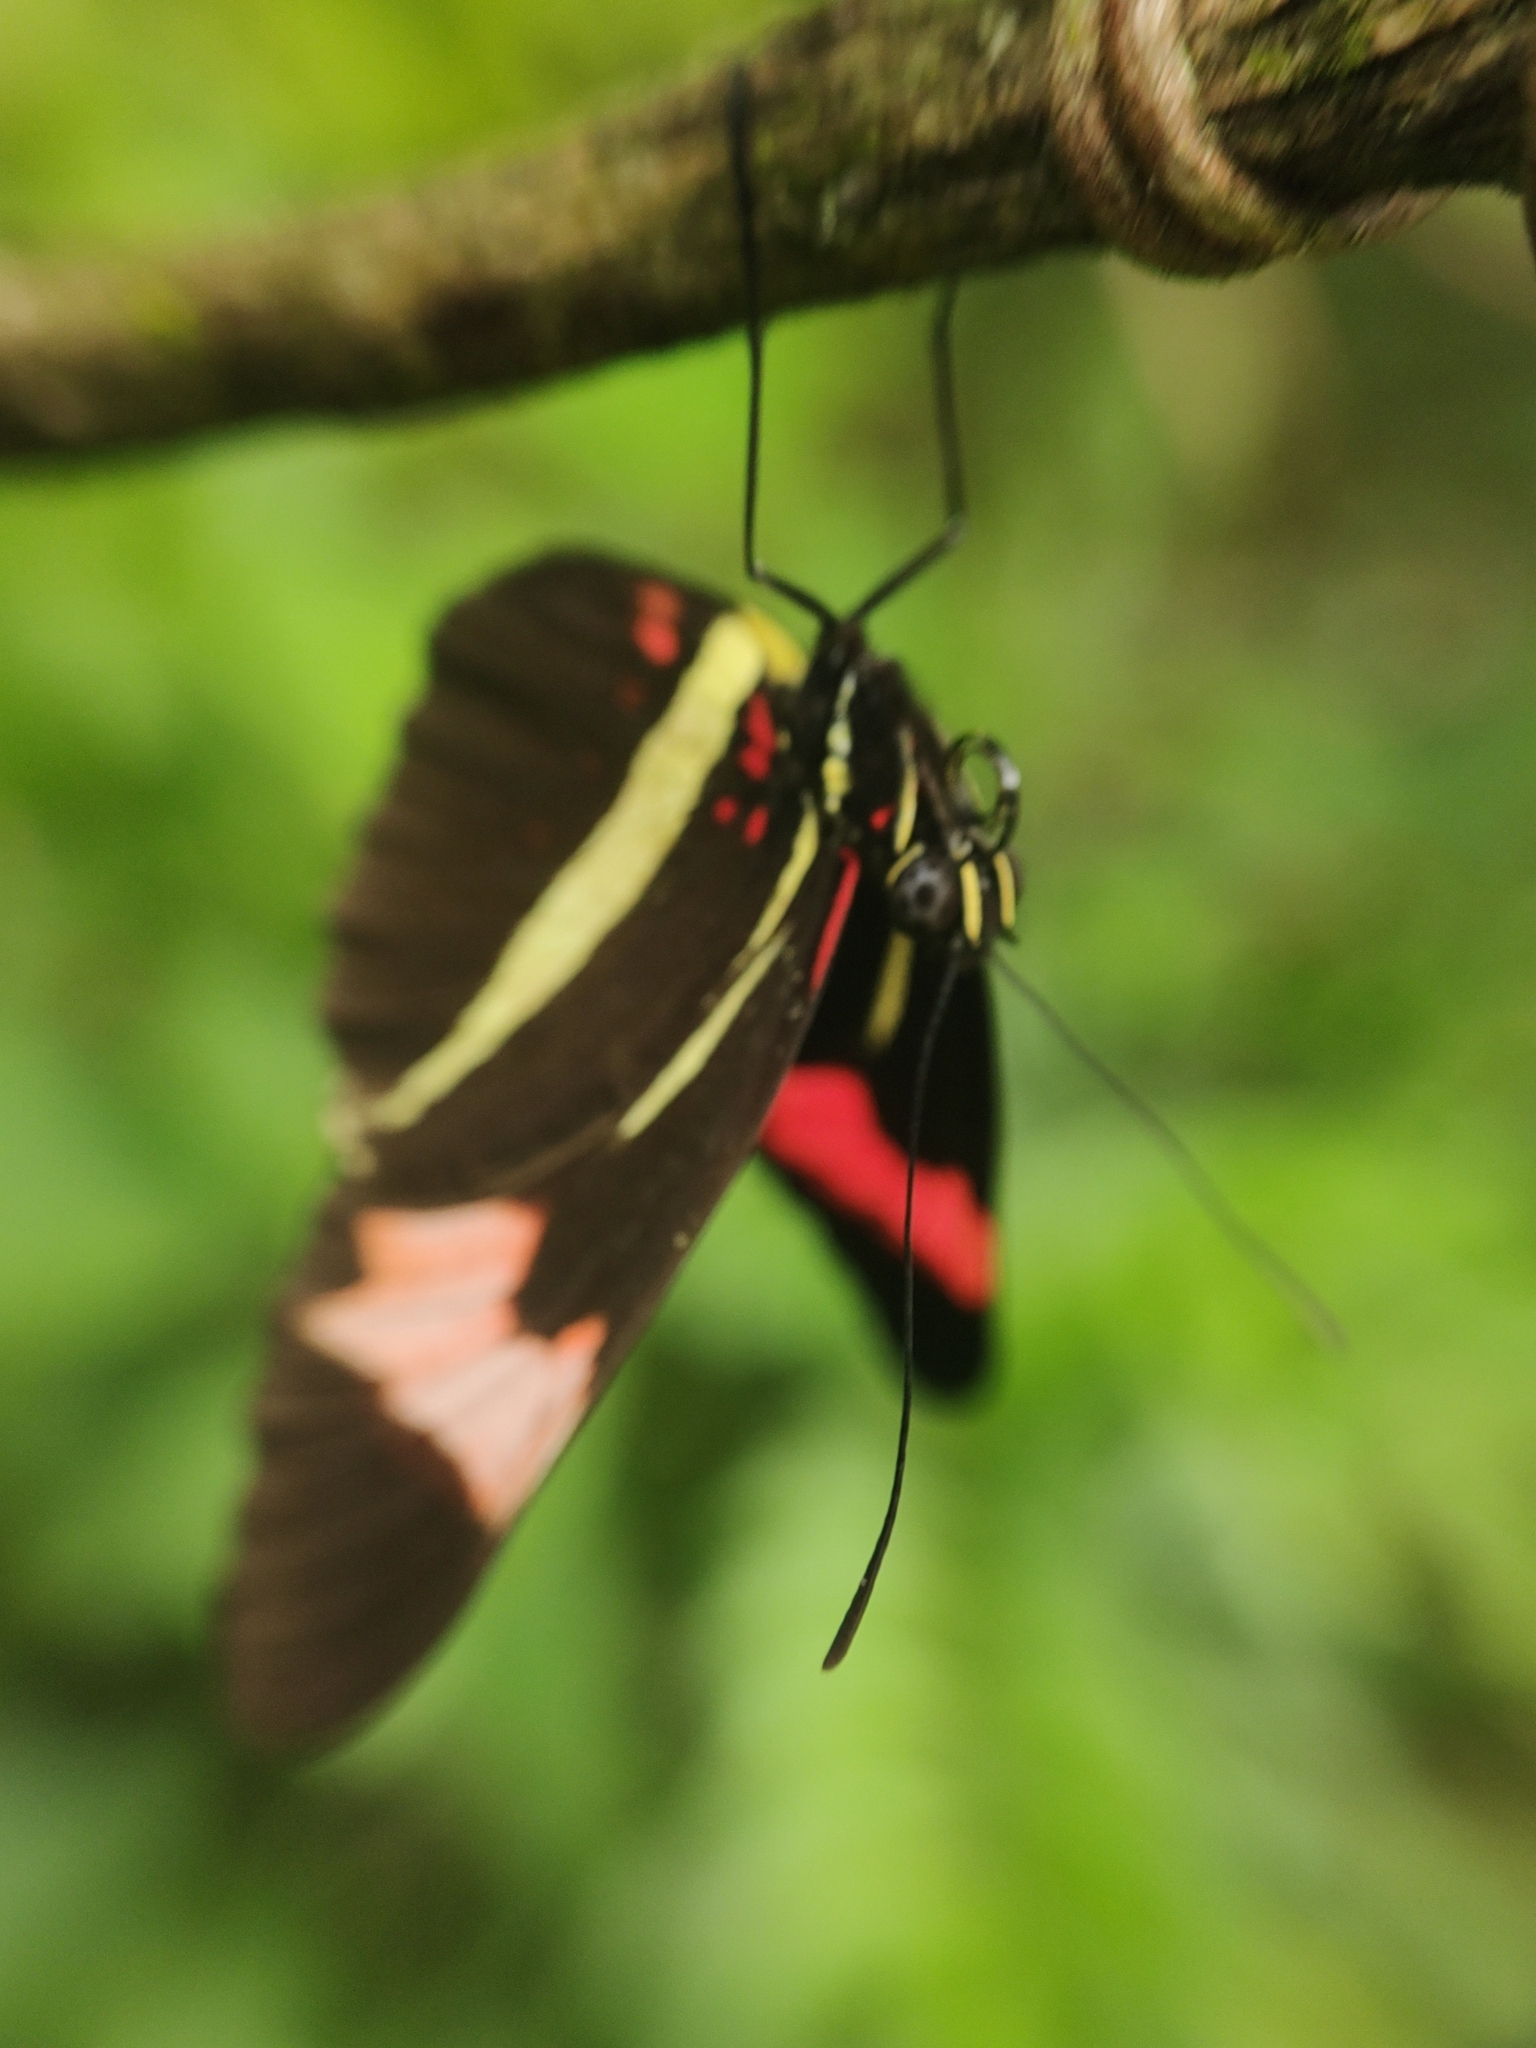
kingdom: Animalia
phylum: Arthropoda
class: Insecta
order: Lepidoptera
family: Nymphalidae
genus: Heliconius
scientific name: Heliconius erato
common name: Common patch longwing
